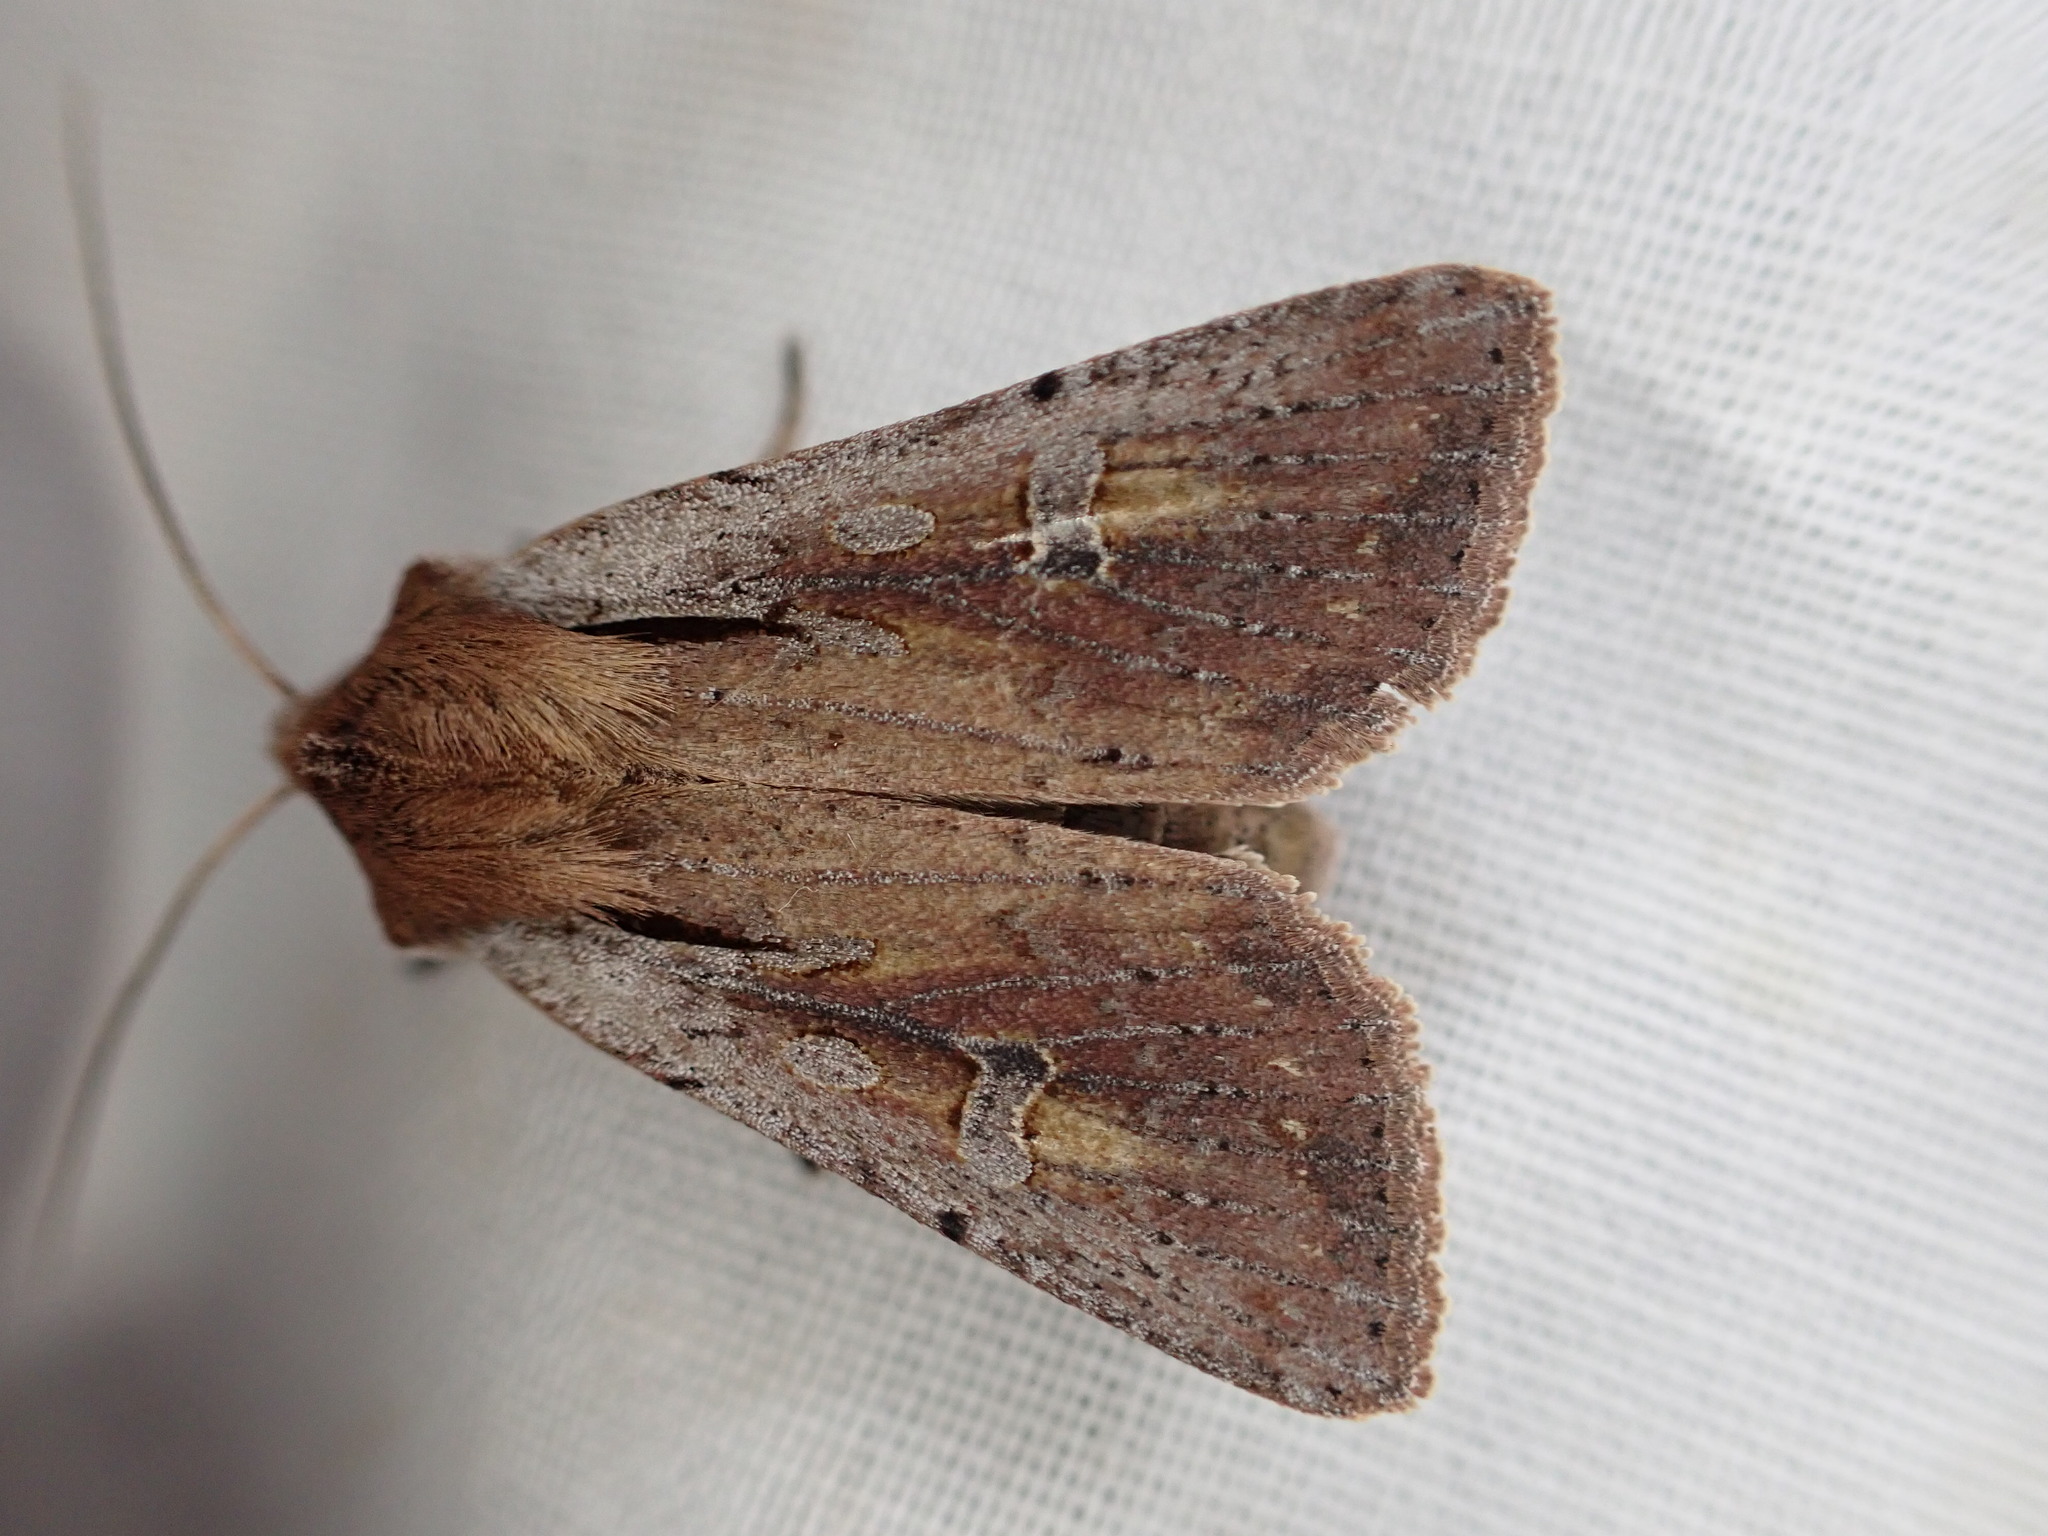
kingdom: Animalia
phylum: Arthropoda
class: Insecta
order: Lepidoptera
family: Noctuidae
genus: Ichneutica
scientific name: Ichneutica atristriga
